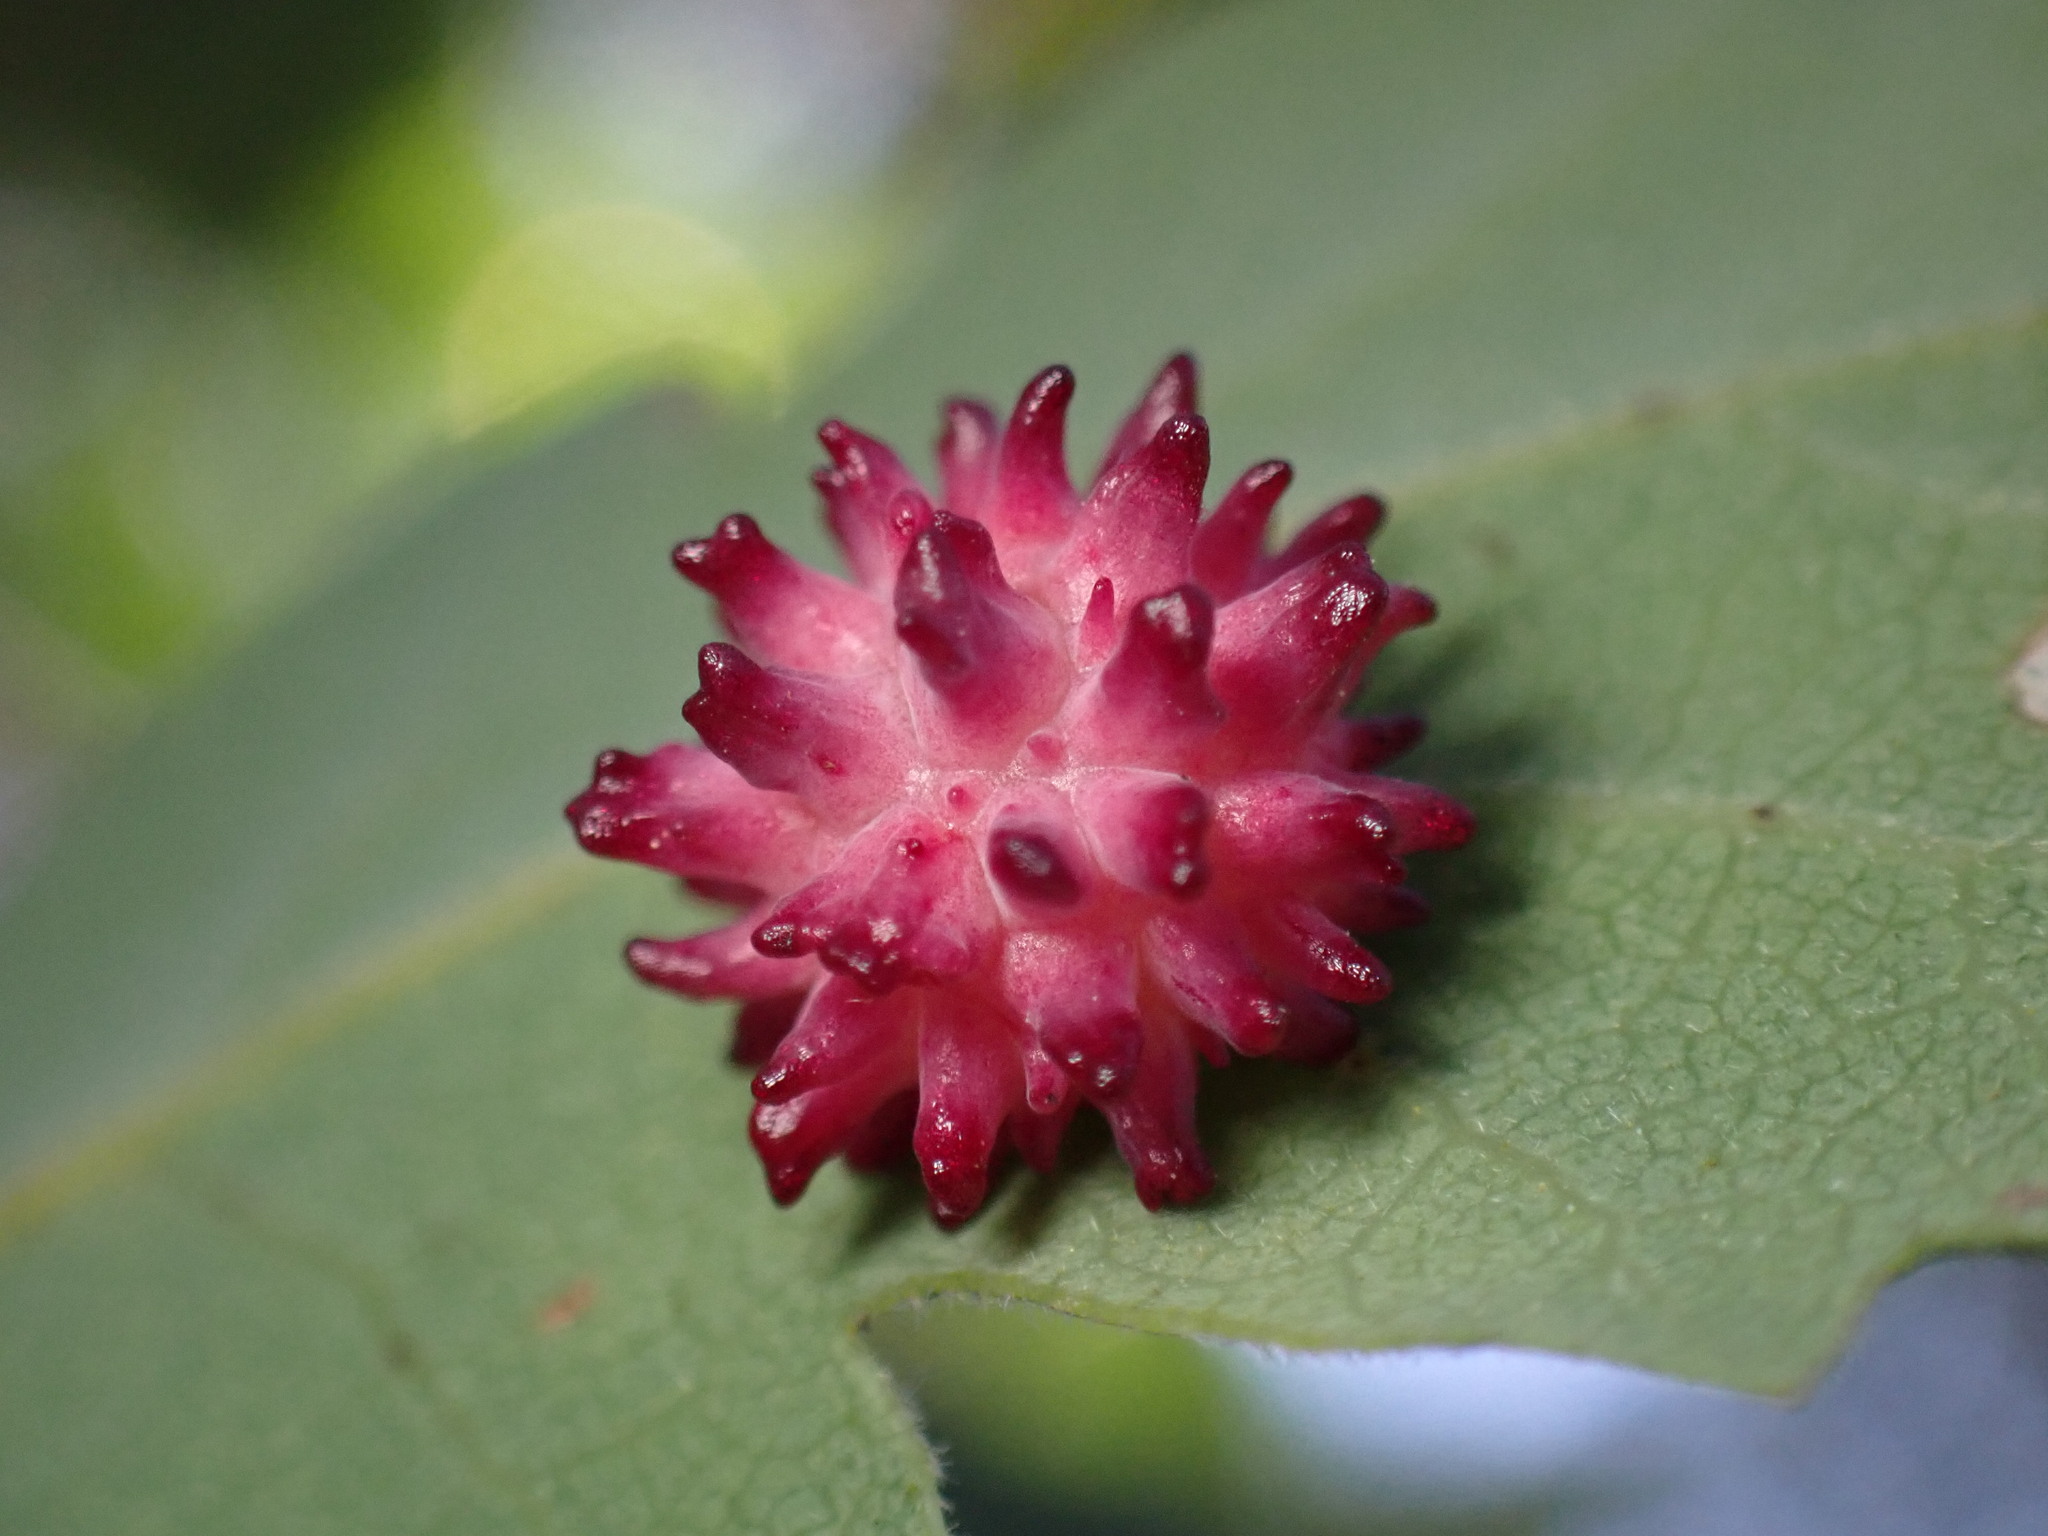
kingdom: Animalia
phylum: Arthropoda
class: Insecta
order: Hymenoptera
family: Cynipidae
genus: Cynips
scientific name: Cynips
